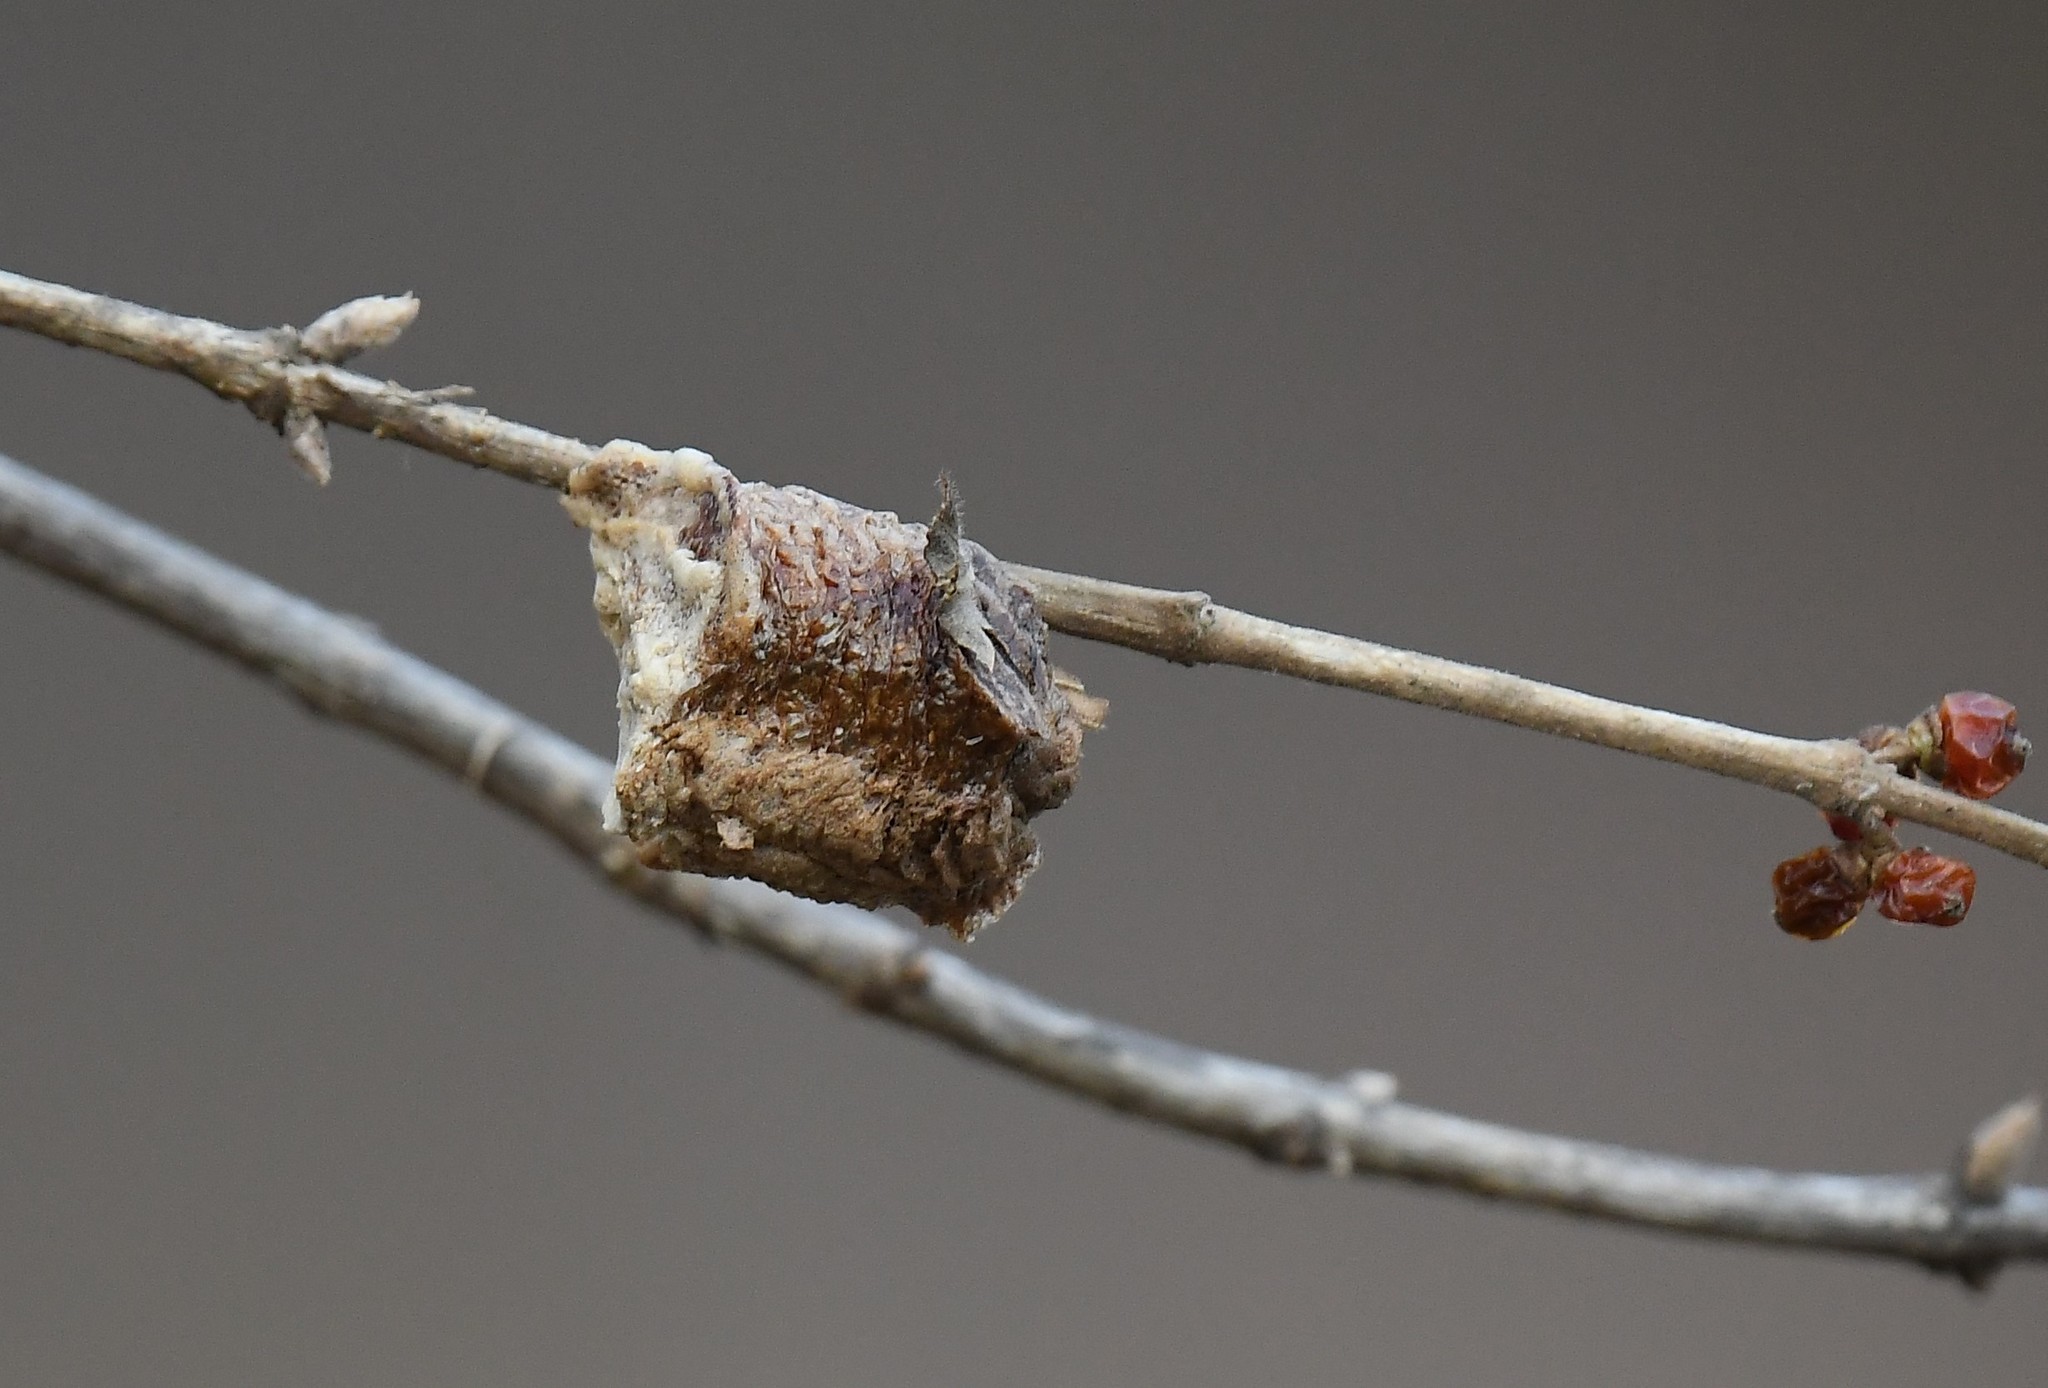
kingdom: Animalia
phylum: Arthropoda
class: Insecta
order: Mantodea
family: Mantidae
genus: Tenodera
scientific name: Tenodera sinensis
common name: Chinese mantis
